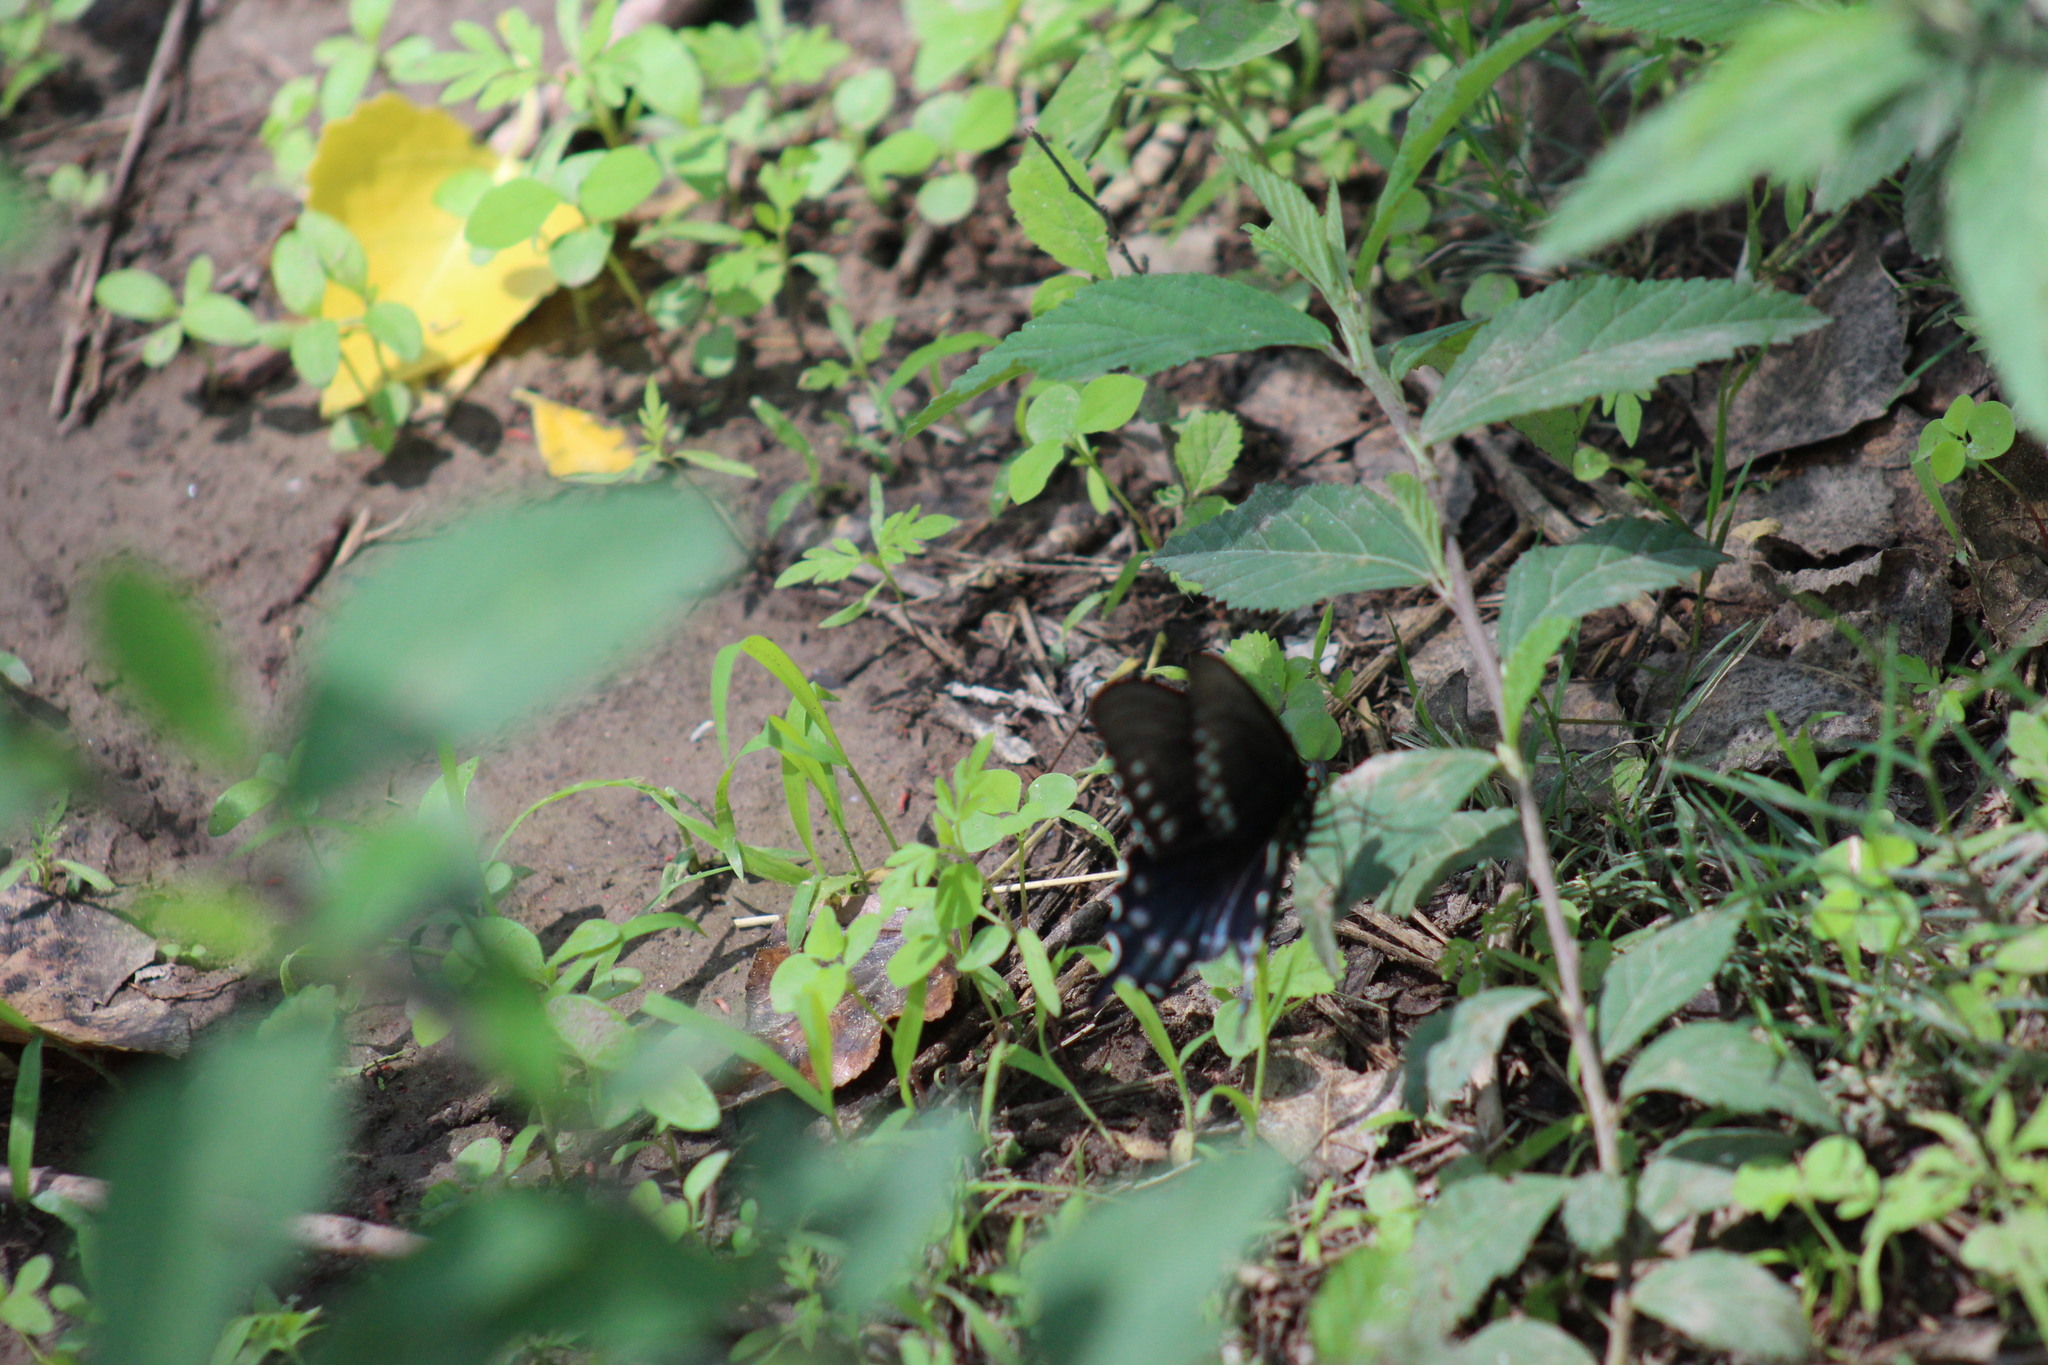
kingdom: Animalia
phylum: Arthropoda
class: Insecta
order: Lepidoptera
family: Papilionidae
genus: Battus
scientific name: Battus philenor
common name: Pipevine swallowtail
